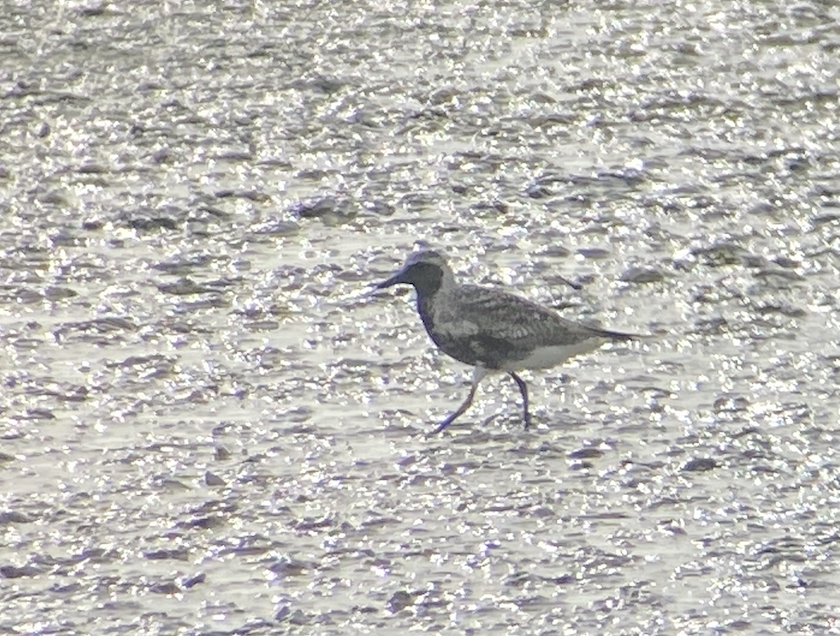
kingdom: Animalia
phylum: Chordata
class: Aves
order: Charadriiformes
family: Charadriidae
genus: Pluvialis
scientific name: Pluvialis squatarola
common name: Grey plover
